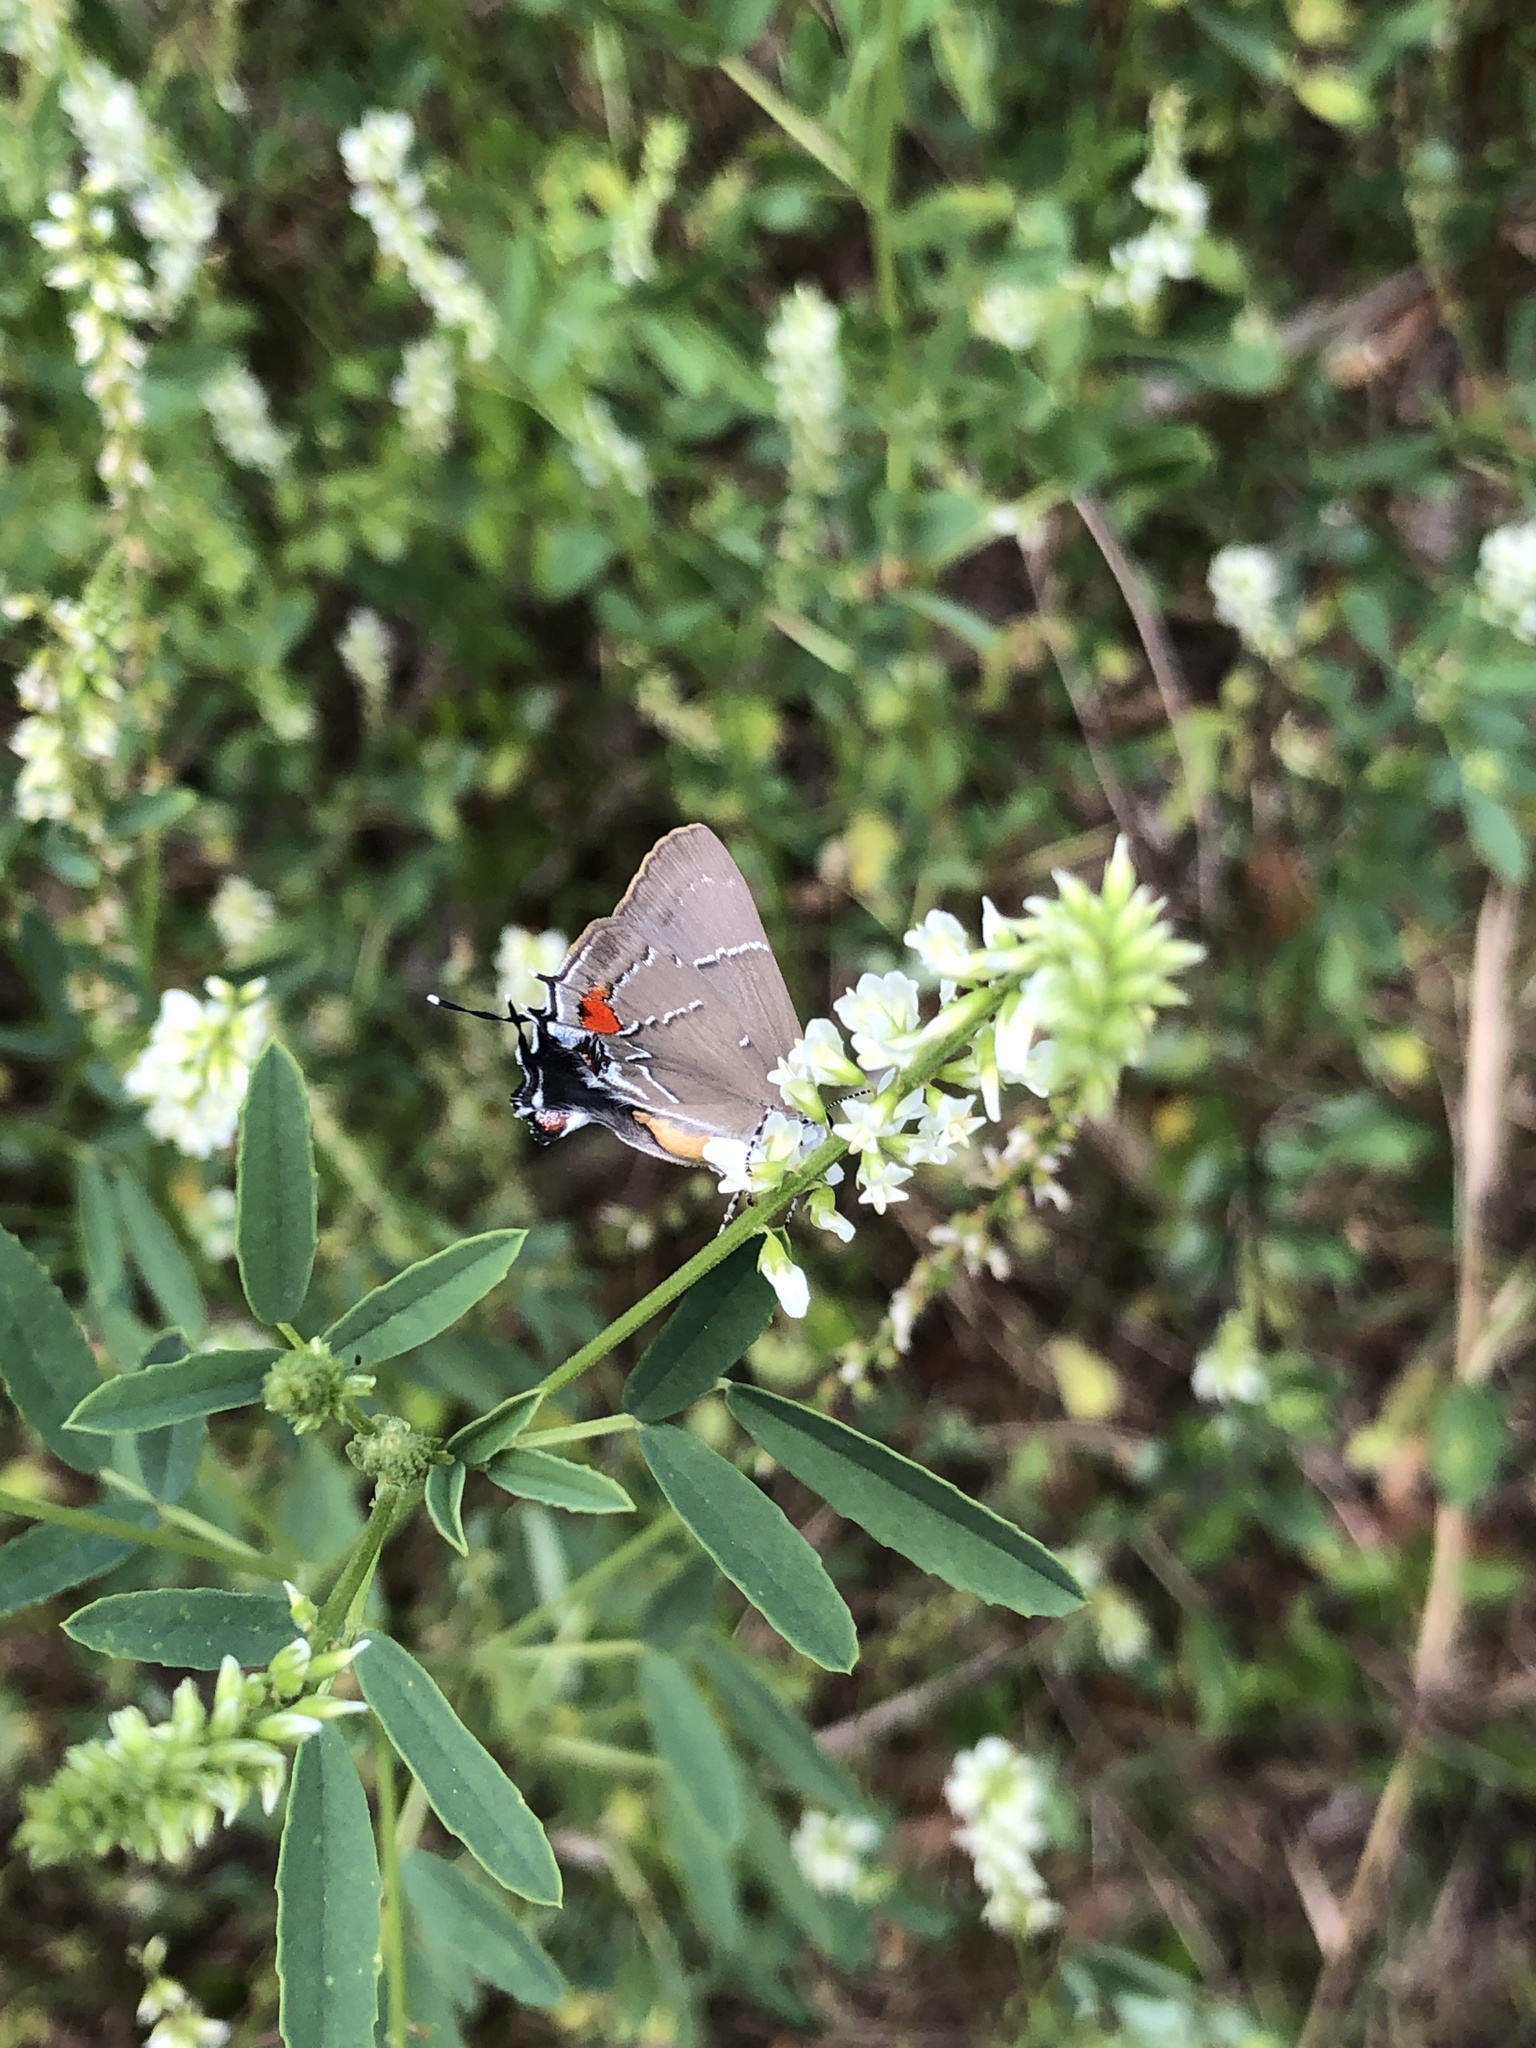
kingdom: Animalia
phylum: Arthropoda
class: Insecta
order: Lepidoptera
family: Lycaenidae
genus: Parrhasius
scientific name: Parrhasius m-album
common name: White m hairstreak
